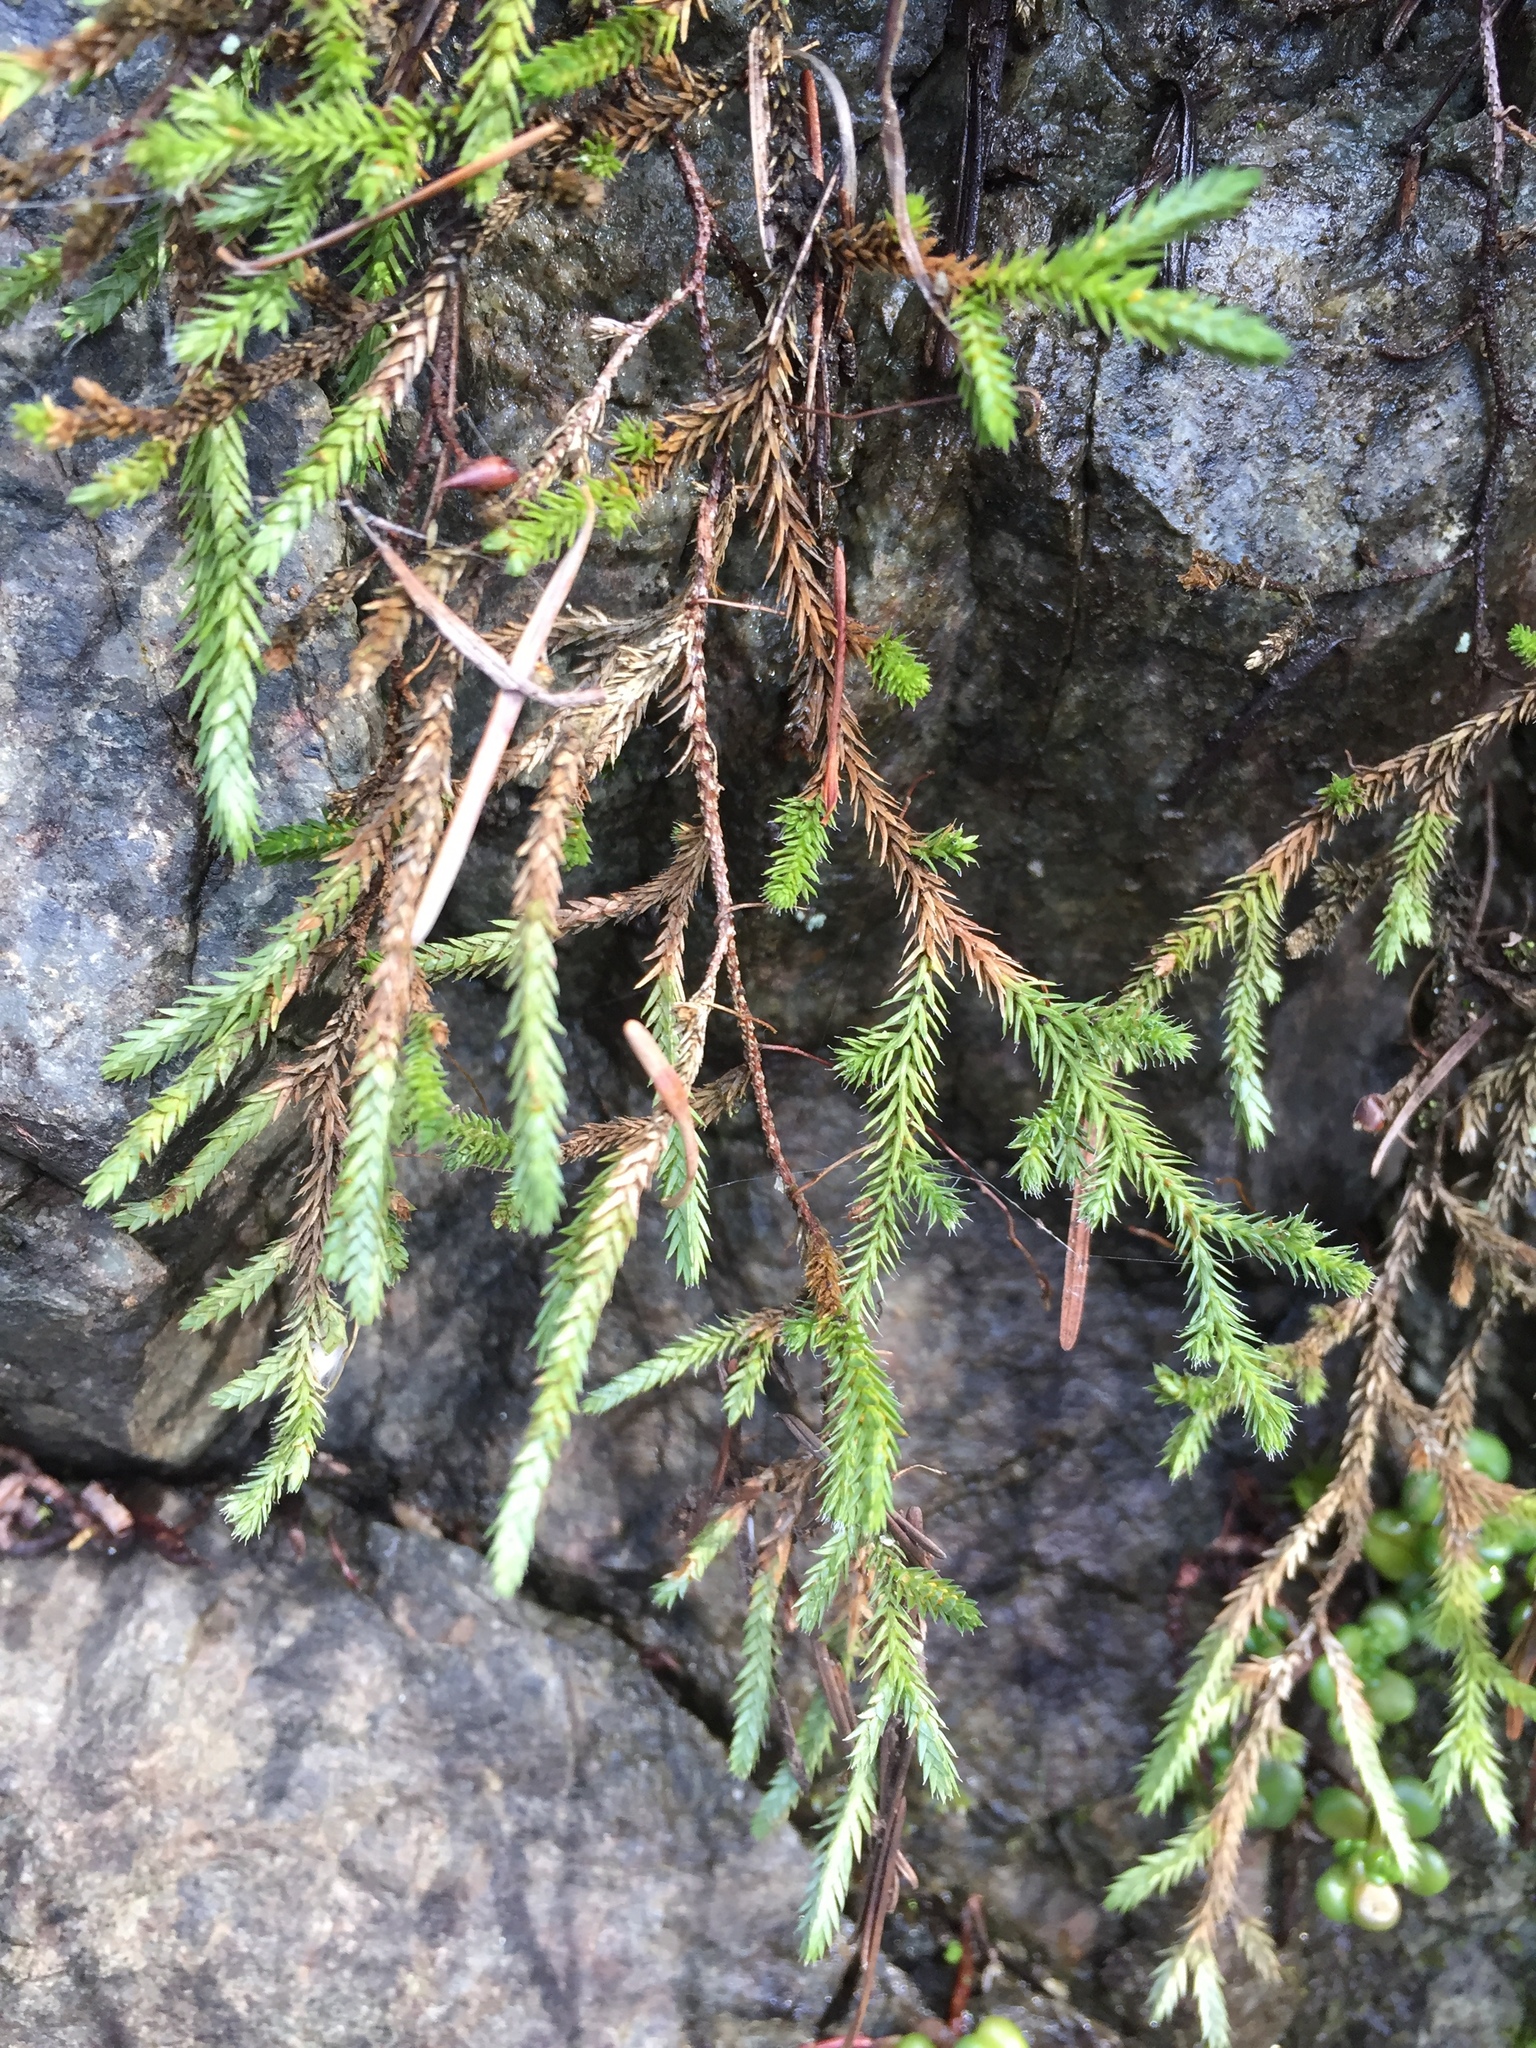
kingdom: Plantae
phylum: Tracheophyta
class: Lycopodiopsida
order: Selaginellales
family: Selaginellaceae
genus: Selaginella
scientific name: Selaginella wallacei
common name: Wallace's selaginella
